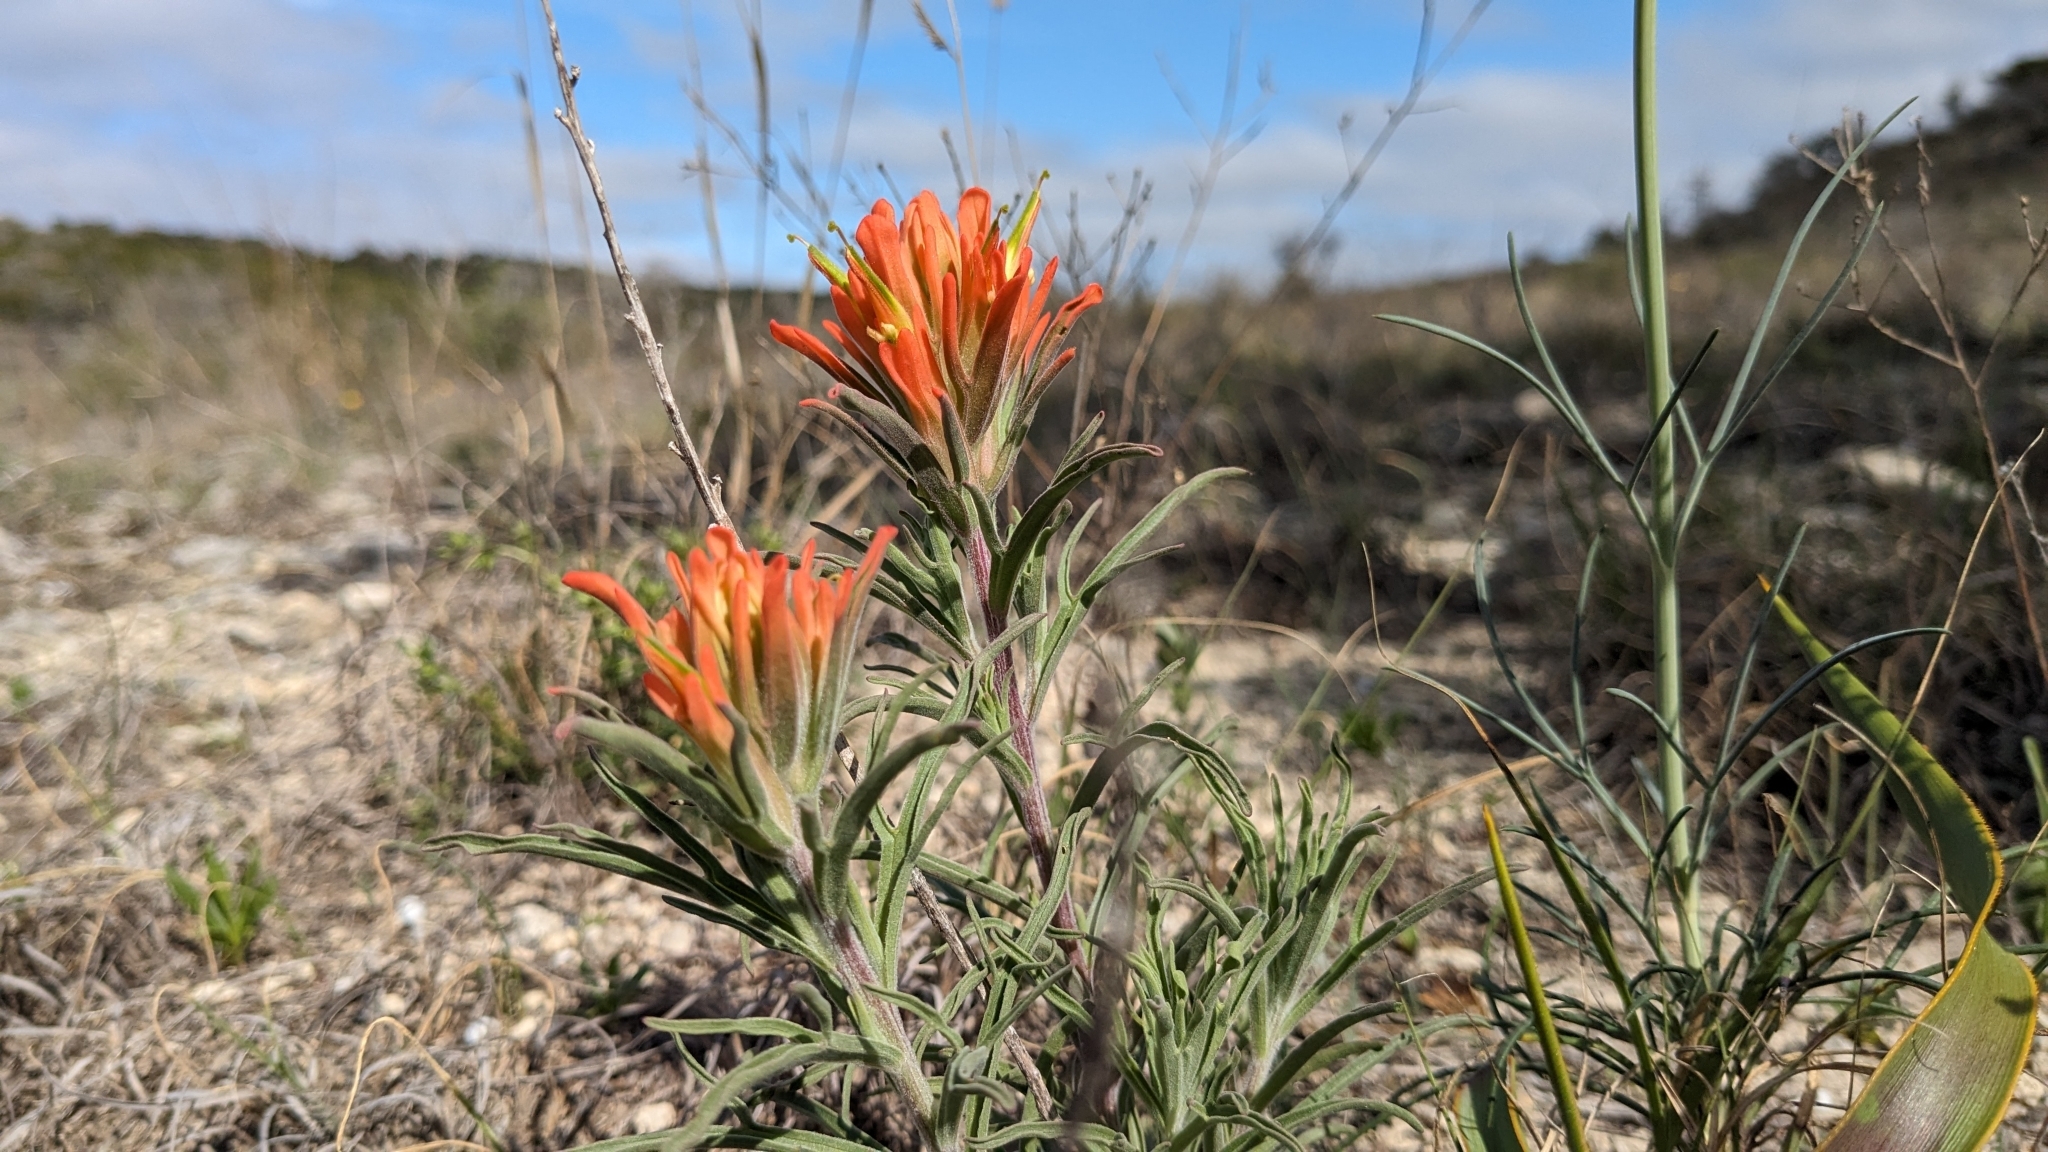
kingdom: Plantae
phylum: Tracheophyta
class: Magnoliopsida
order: Lamiales
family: Orobanchaceae
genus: Castilleja
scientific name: Castilleja lindheimeri
